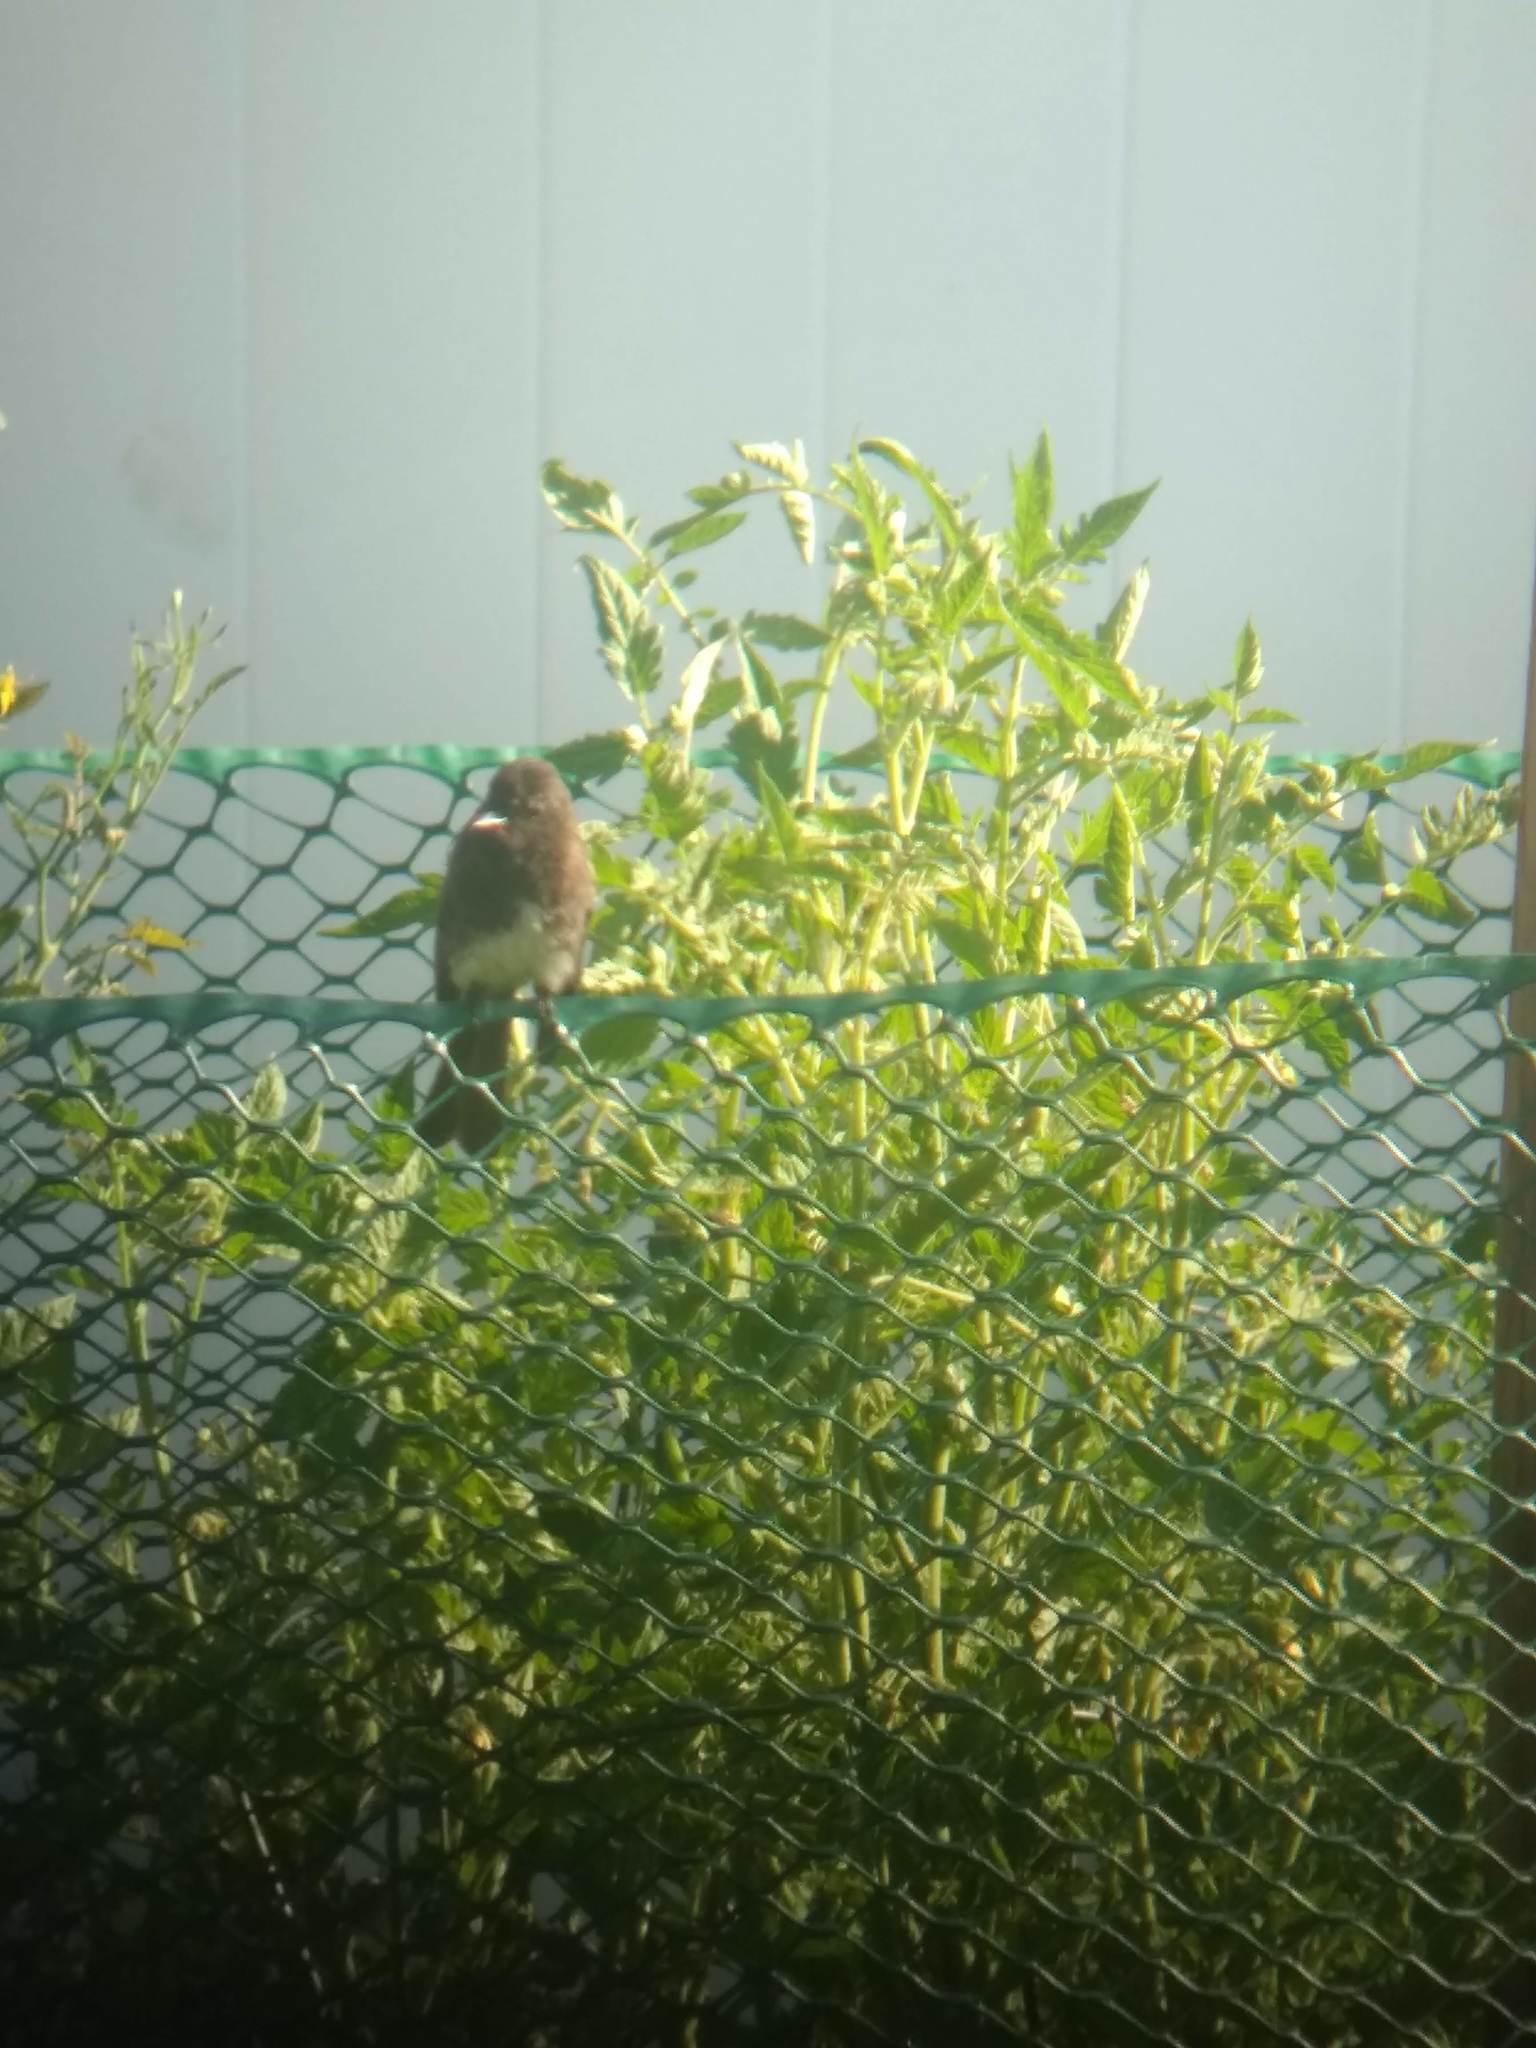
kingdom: Animalia
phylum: Chordata
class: Aves
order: Passeriformes
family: Tyrannidae
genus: Sayornis
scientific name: Sayornis nigricans
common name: Black phoebe
